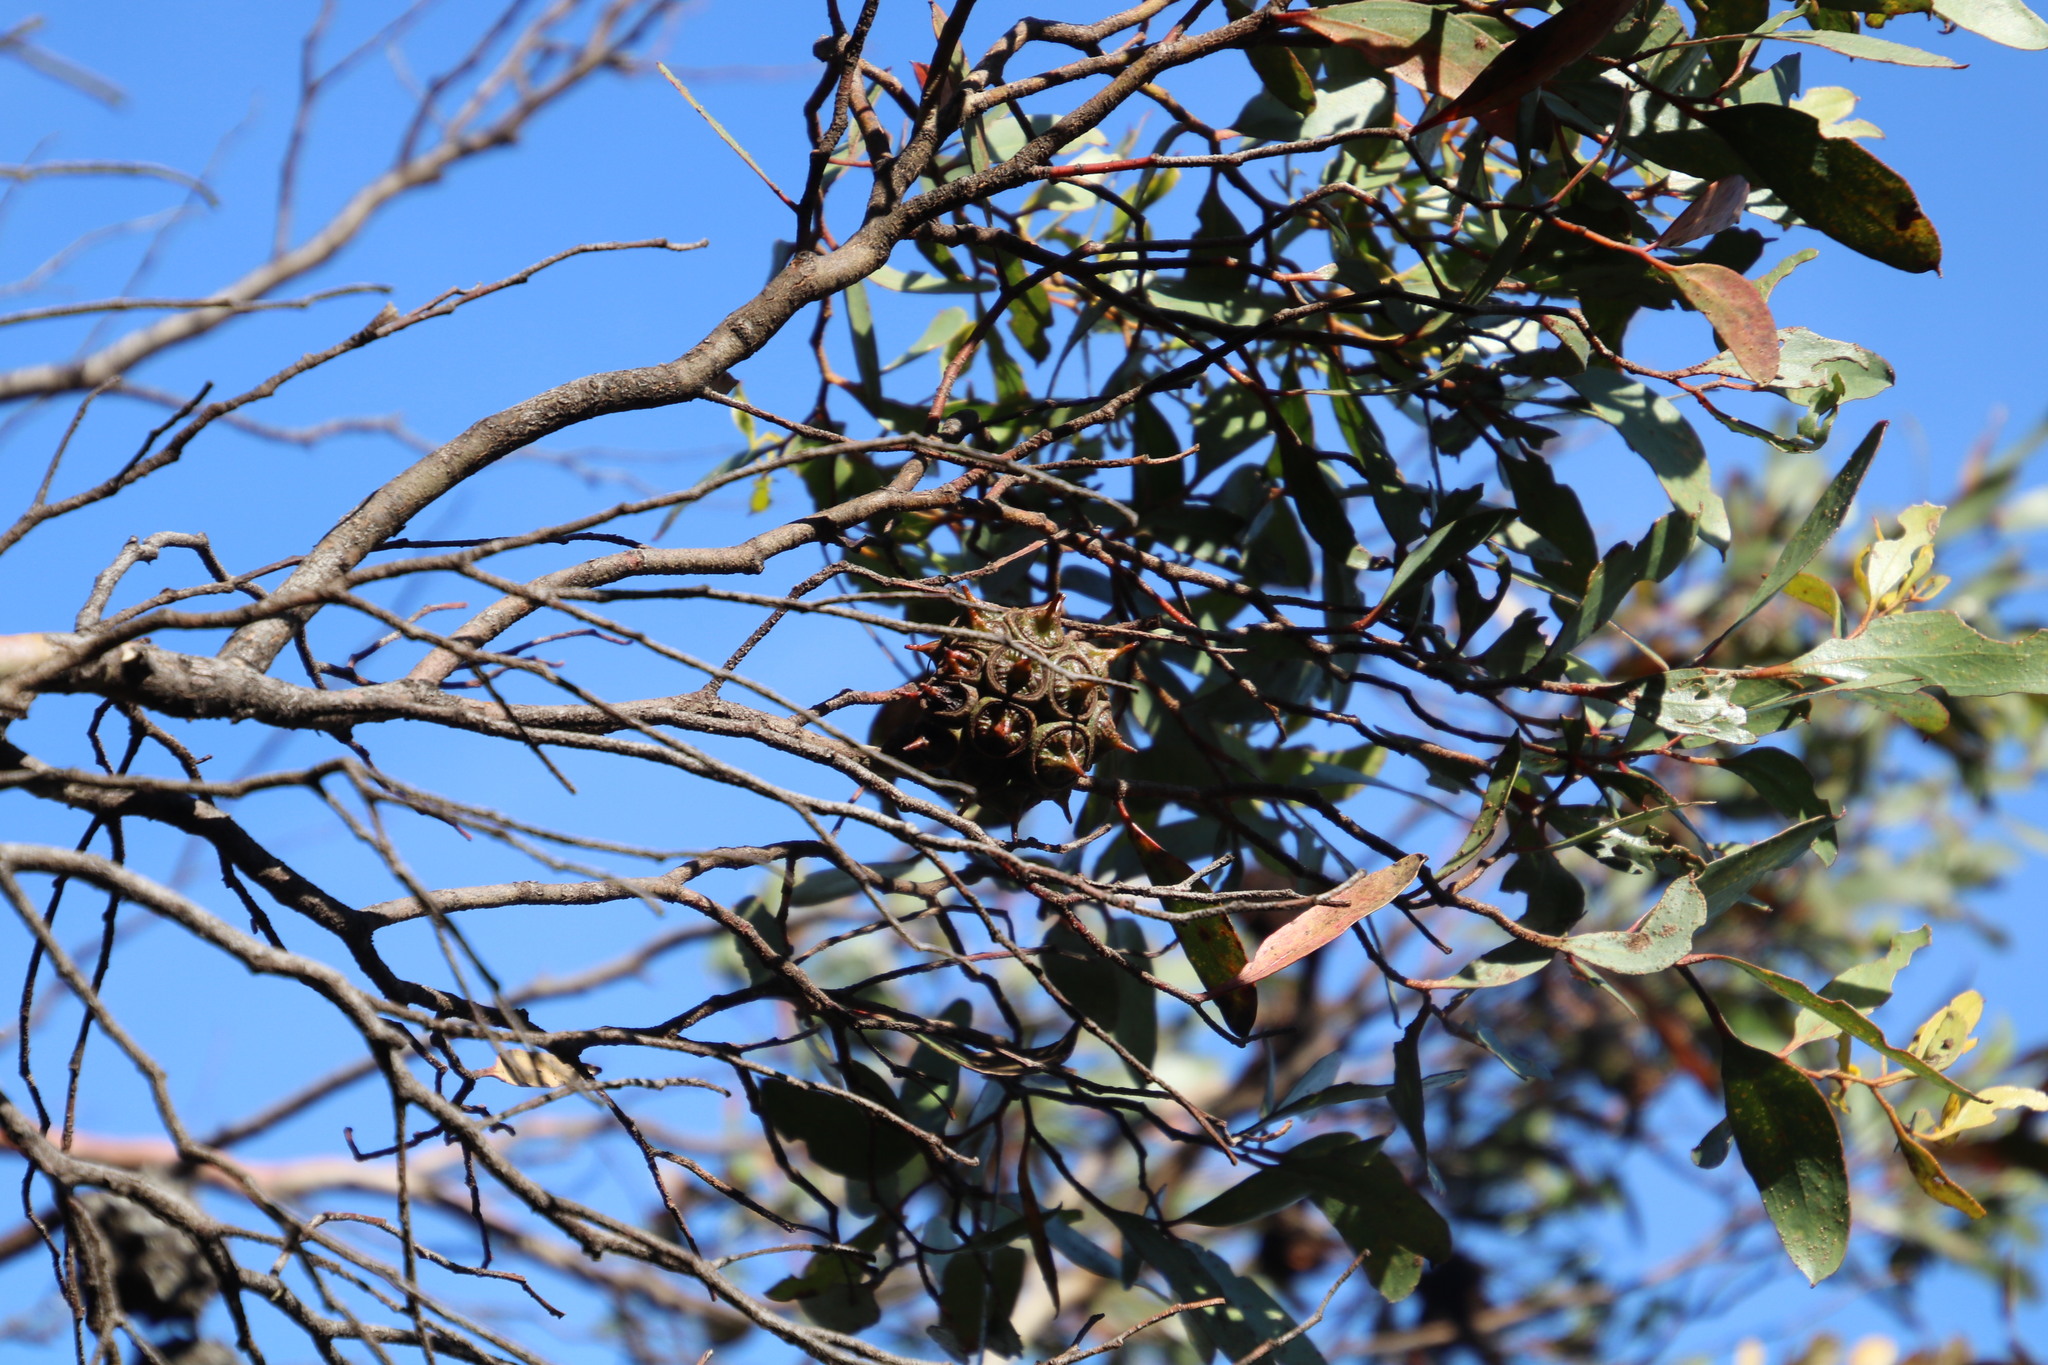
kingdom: Plantae
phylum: Tracheophyta
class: Magnoliopsida
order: Myrtales
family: Myrtaceae
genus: Eucalyptus
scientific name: Eucalyptus conferruminata
